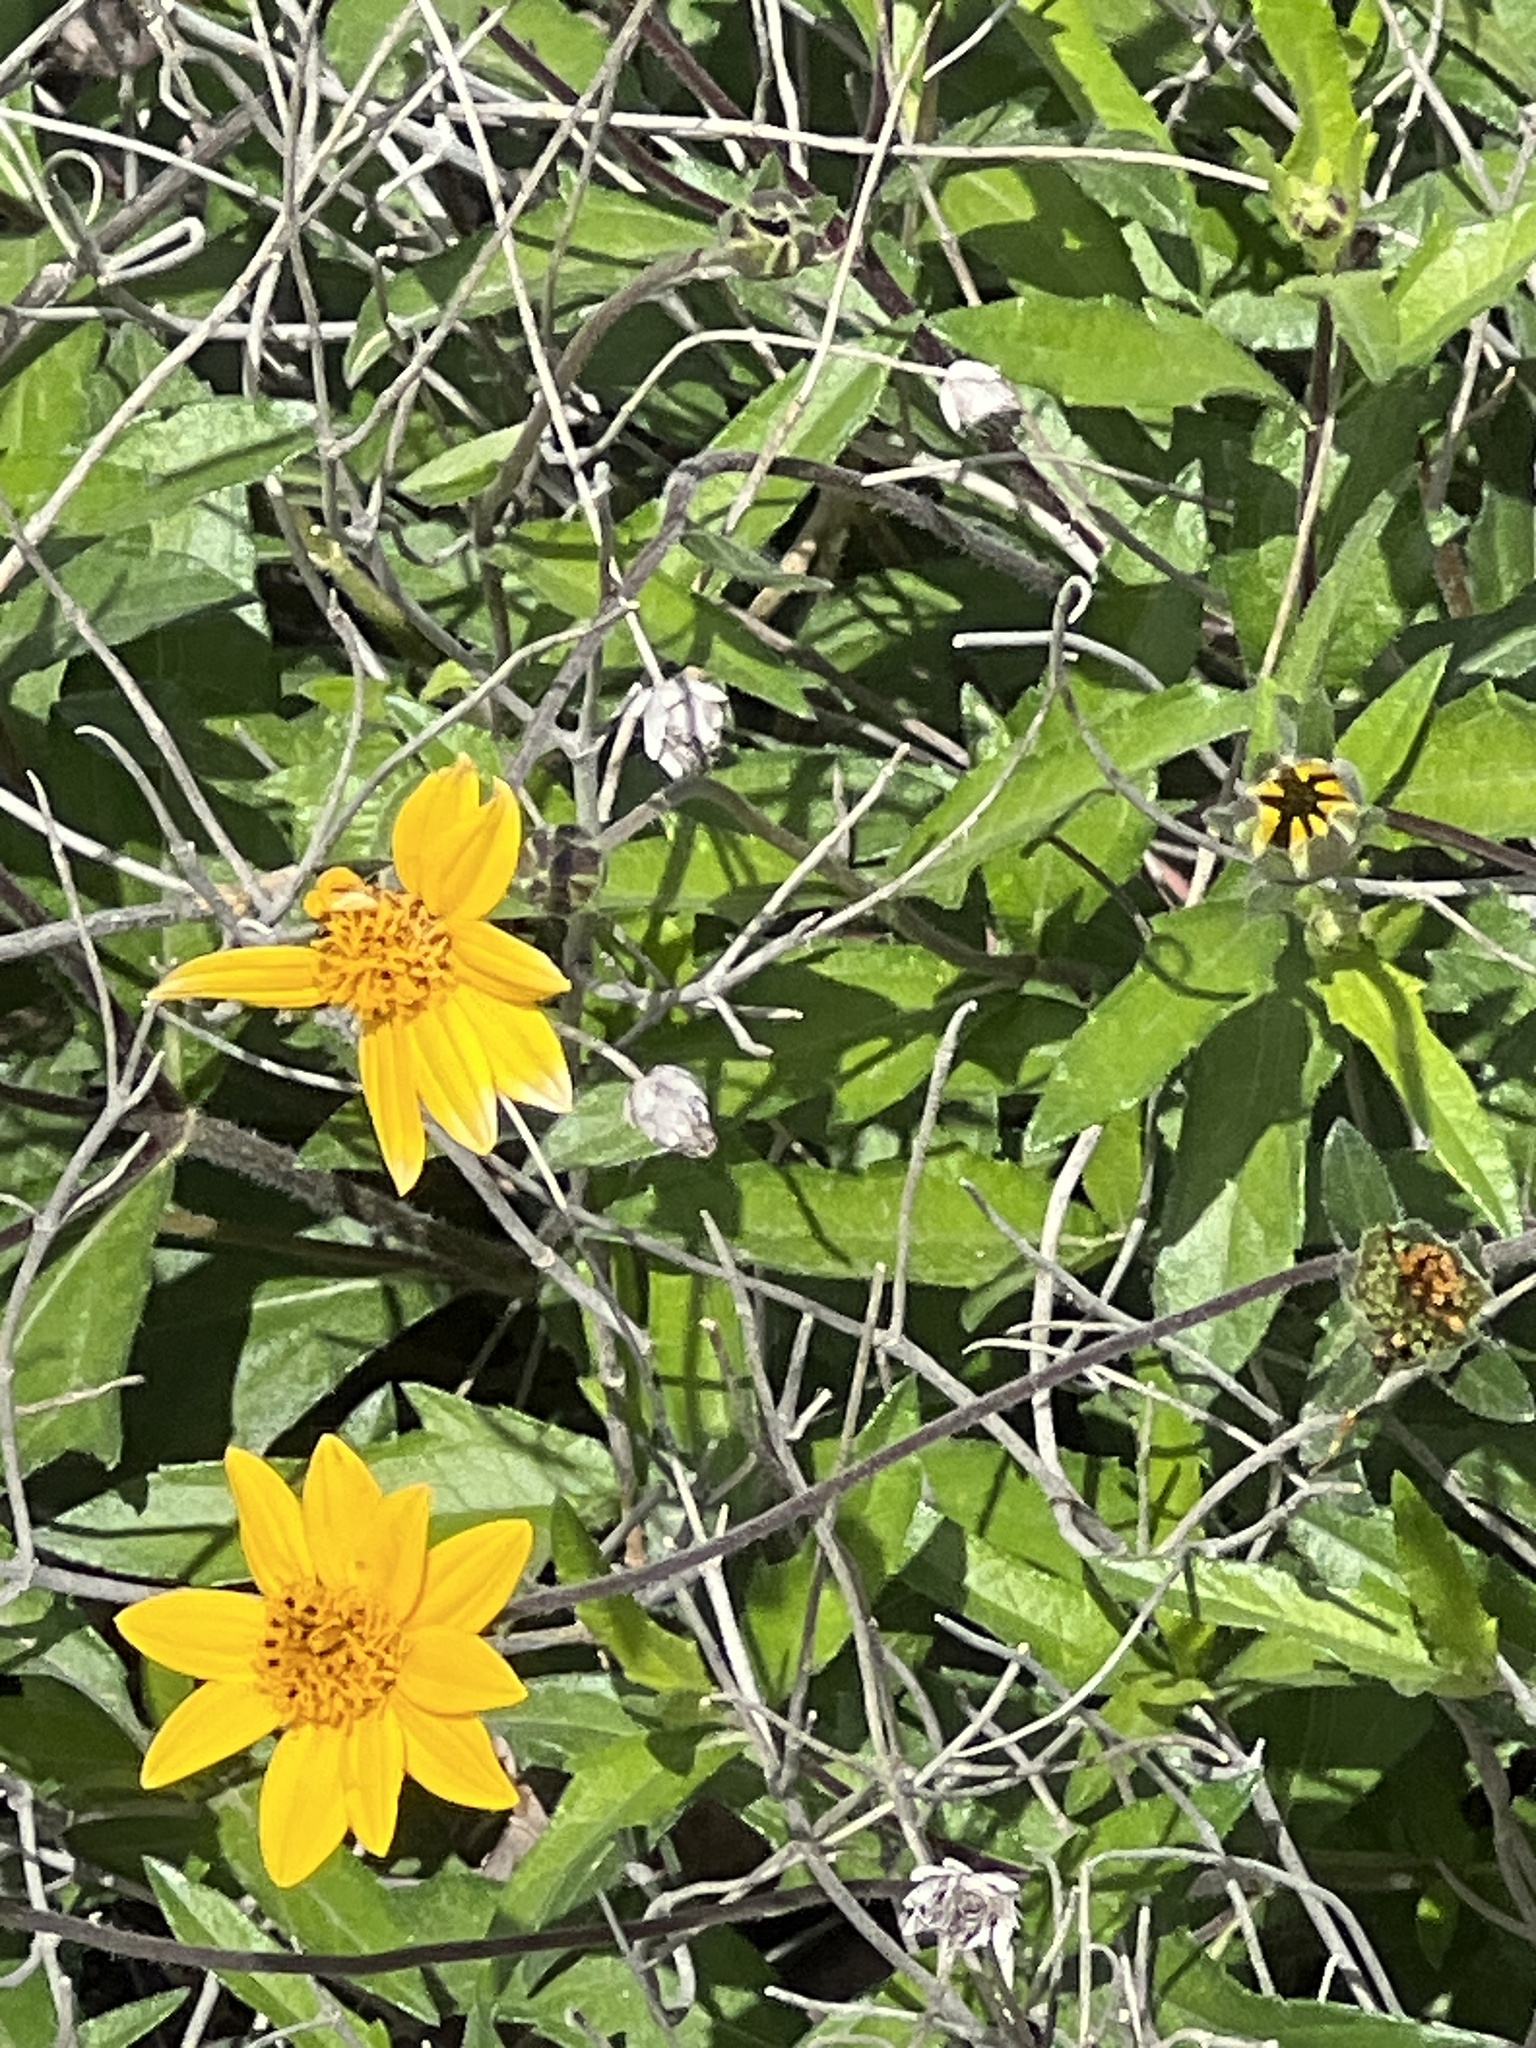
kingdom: Plantae
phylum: Tracheophyta
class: Magnoliopsida
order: Asterales
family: Asteraceae
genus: Wedelia
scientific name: Wedelia acapulcensis
